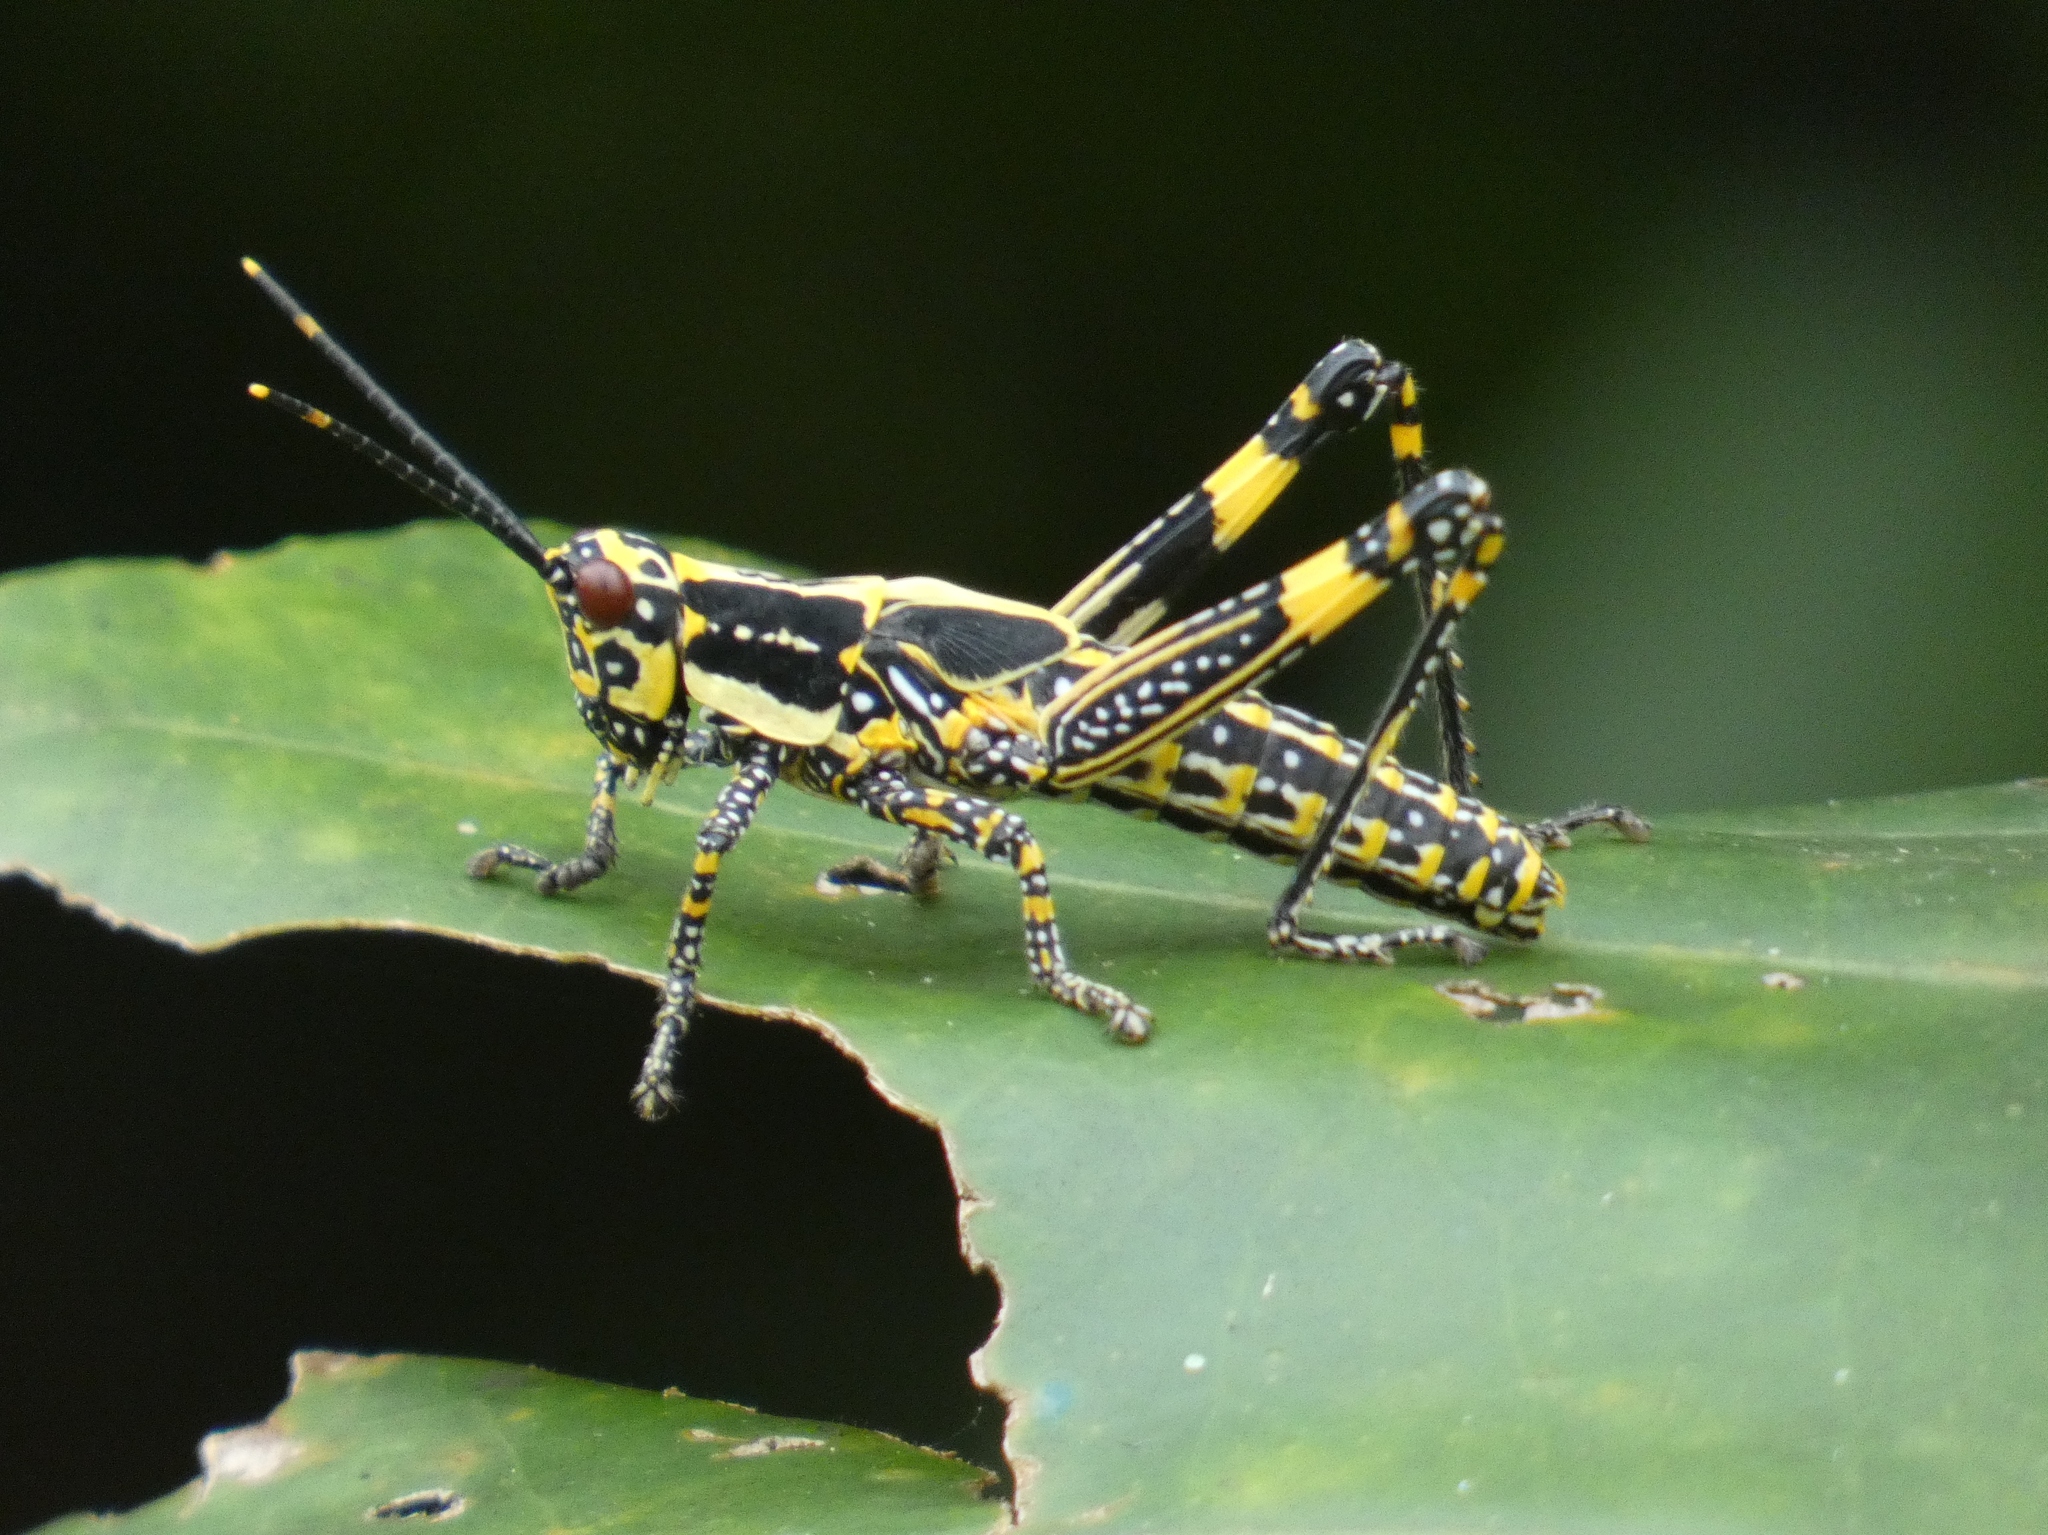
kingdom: Animalia
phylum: Arthropoda
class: Insecta
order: Orthoptera
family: Pyrgomorphidae
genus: Zonocerus
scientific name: Zonocerus variegatus
